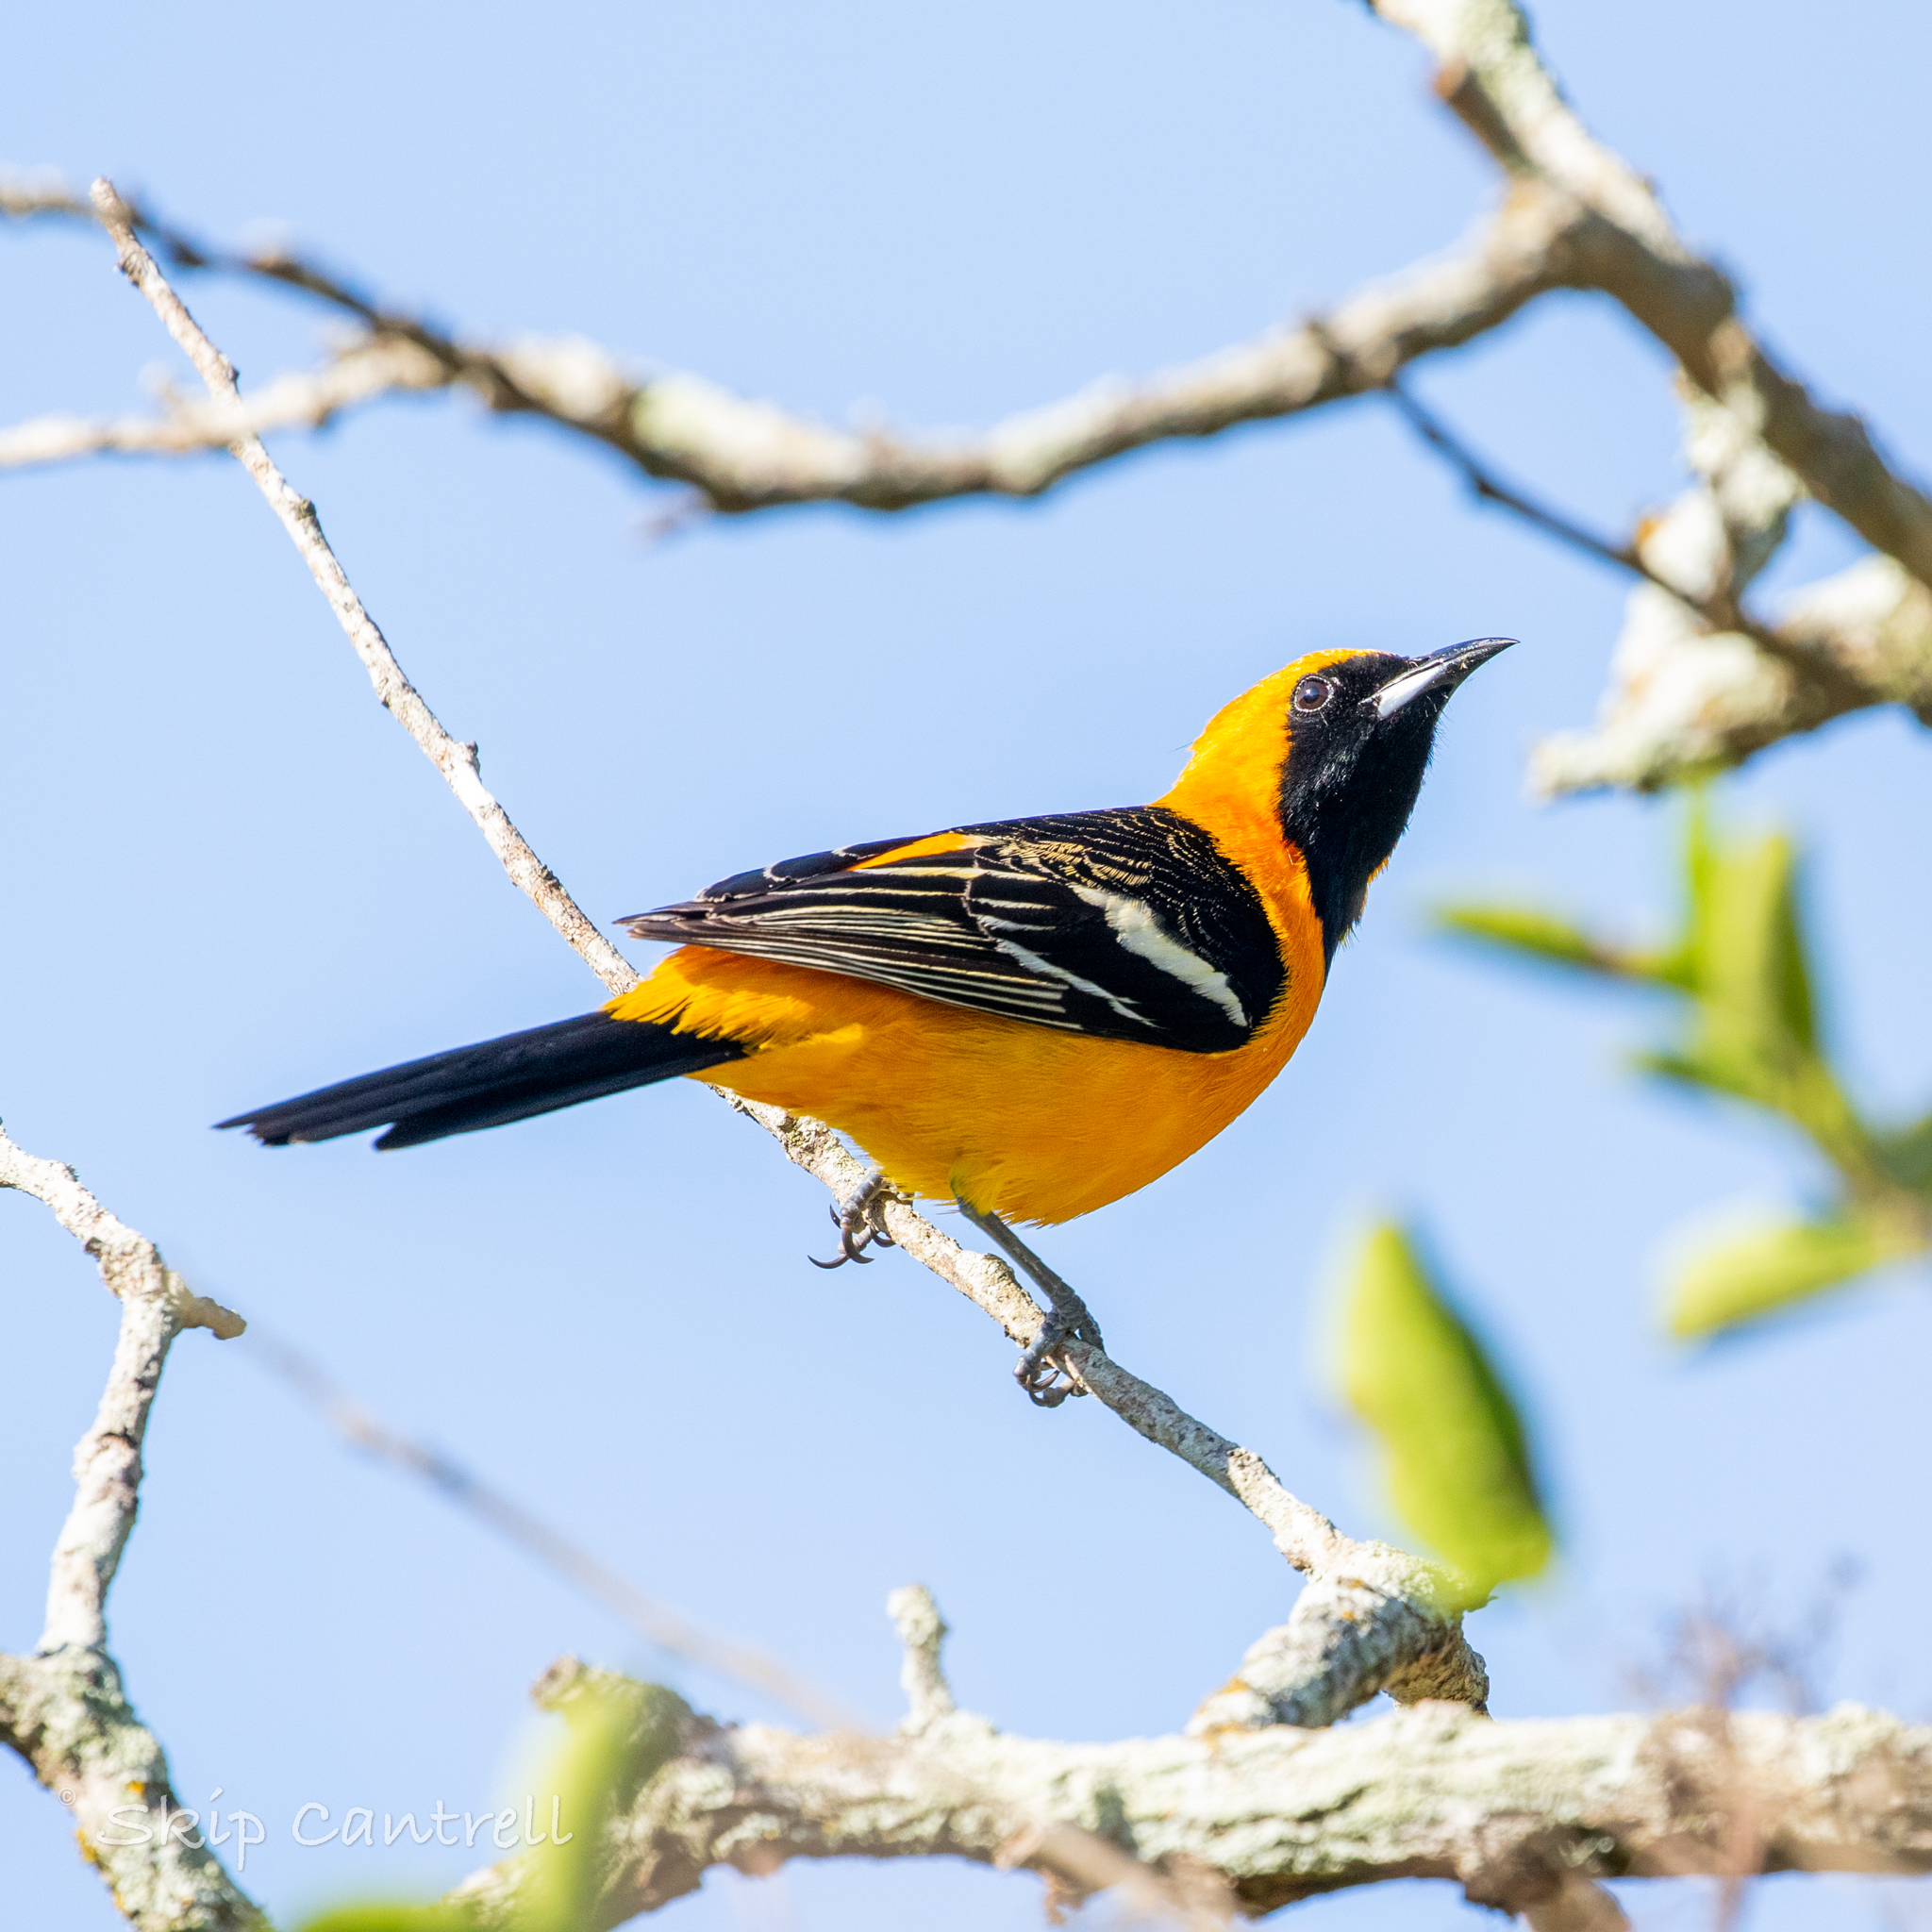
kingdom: Animalia
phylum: Chordata
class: Aves
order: Passeriformes
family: Icteridae
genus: Icterus
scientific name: Icterus cucullatus
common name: Hooded oriole
